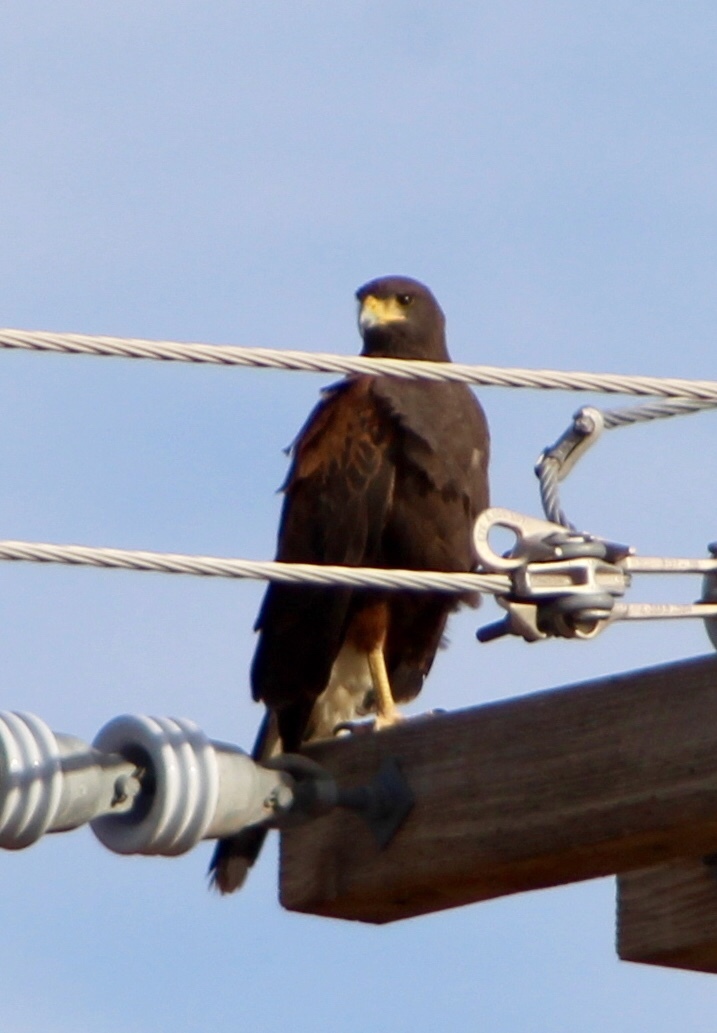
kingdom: Animalia
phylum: Chordata
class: Aves
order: Accipitriformes
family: Accipitridae
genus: Parabuteo
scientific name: Parabuteo unicinctus
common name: Harris's hawk
